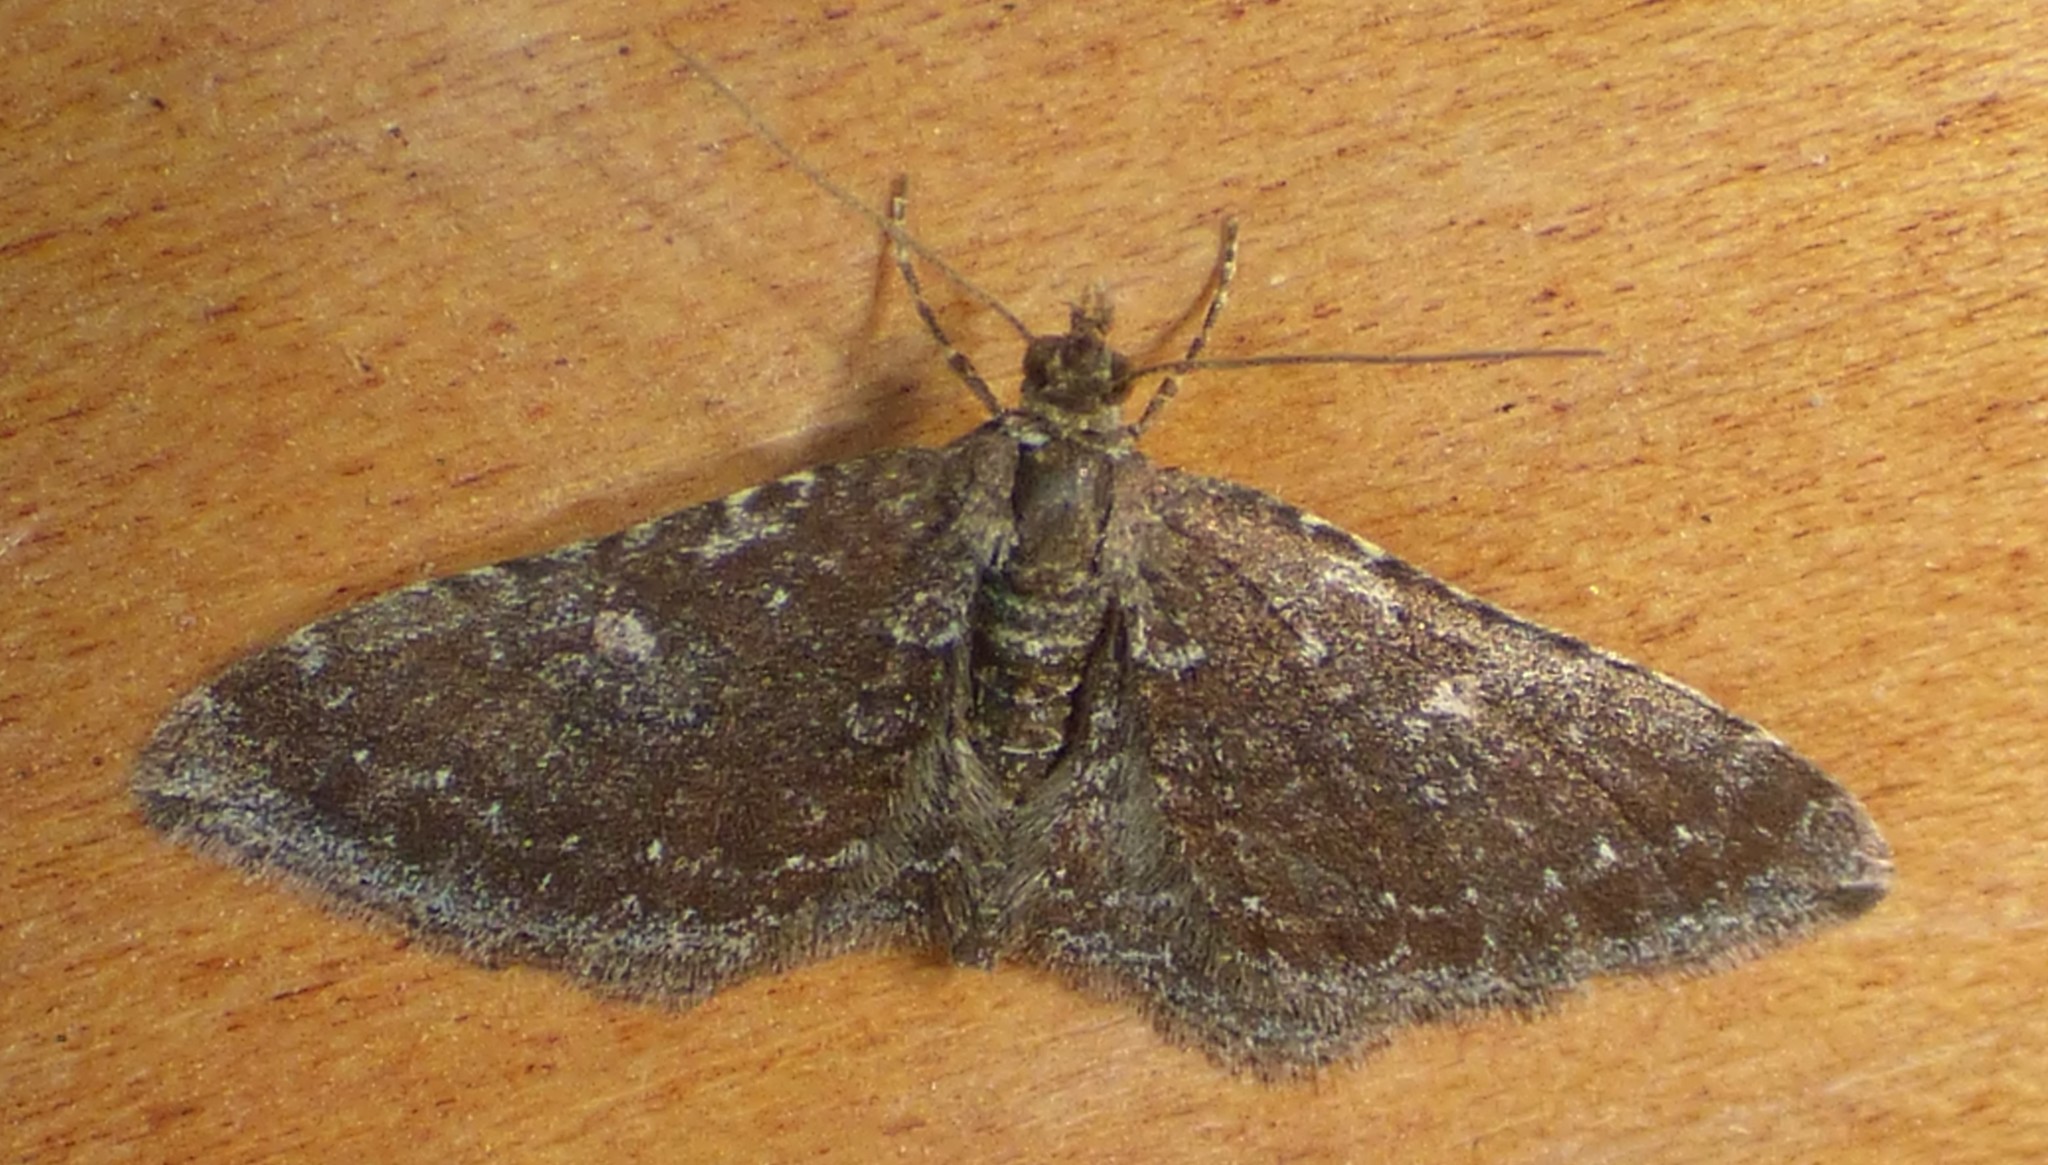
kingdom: Animalia
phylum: Arthropoda
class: Insecta
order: Lepidoptera
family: Geometridae
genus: Orthonama
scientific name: Orthonama obstipata
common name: The gem
